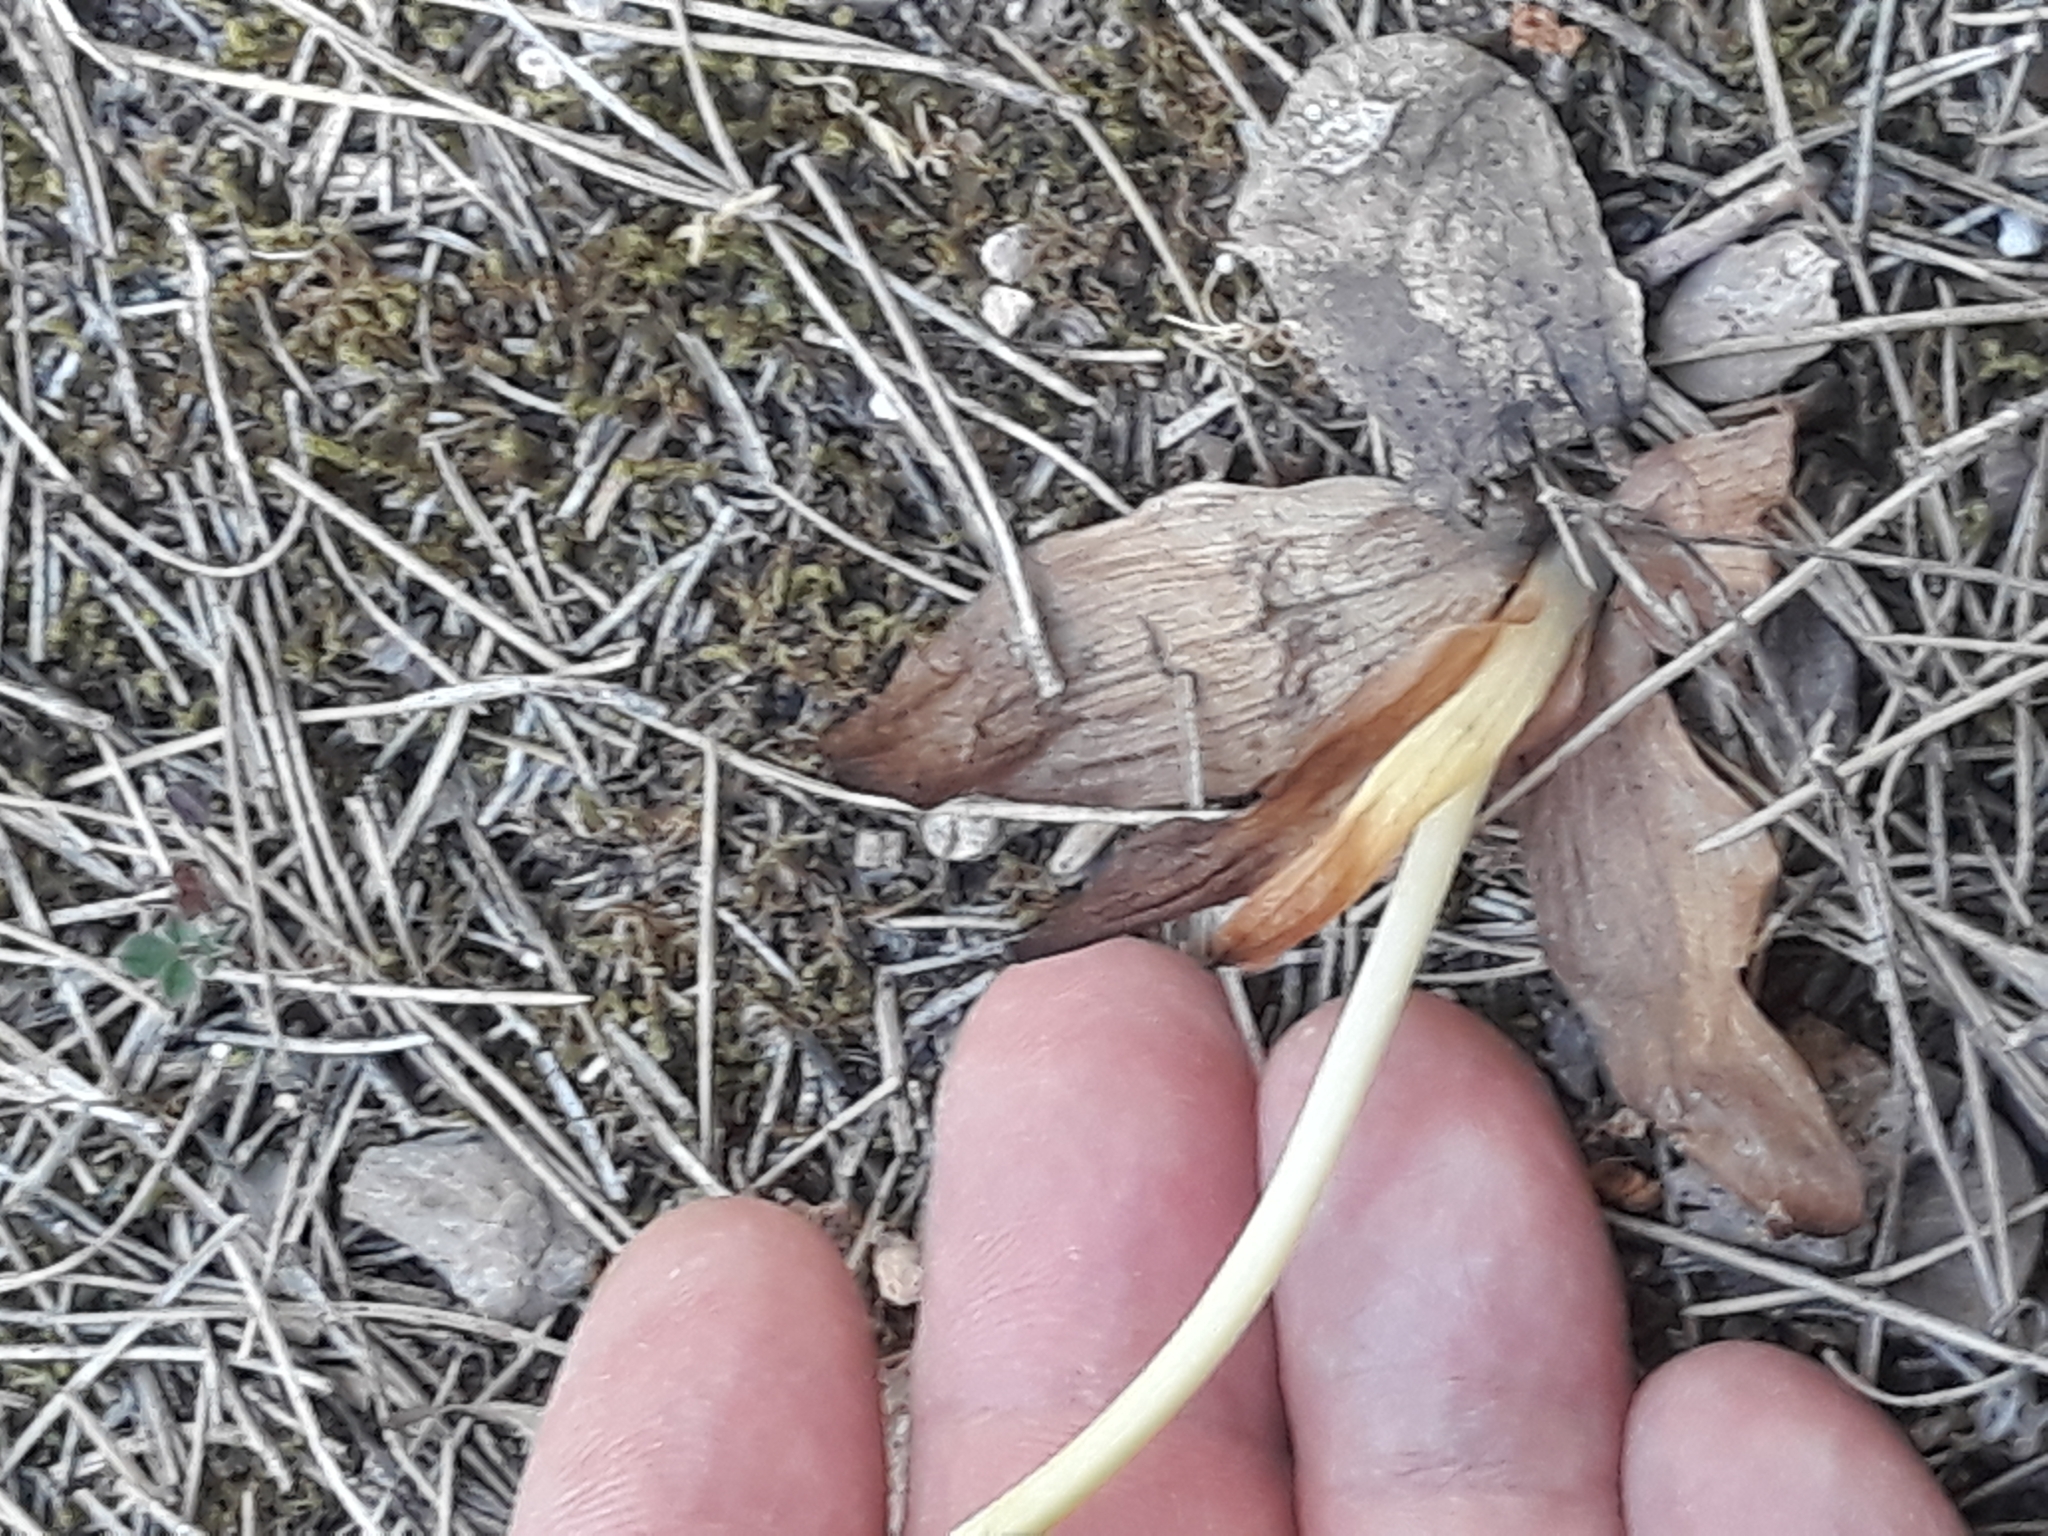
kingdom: Plantae
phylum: Tracheophyta
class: Liliopsida
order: Asparagales
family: Orchidaceae
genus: Ophrys
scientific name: Ophrys speculum
